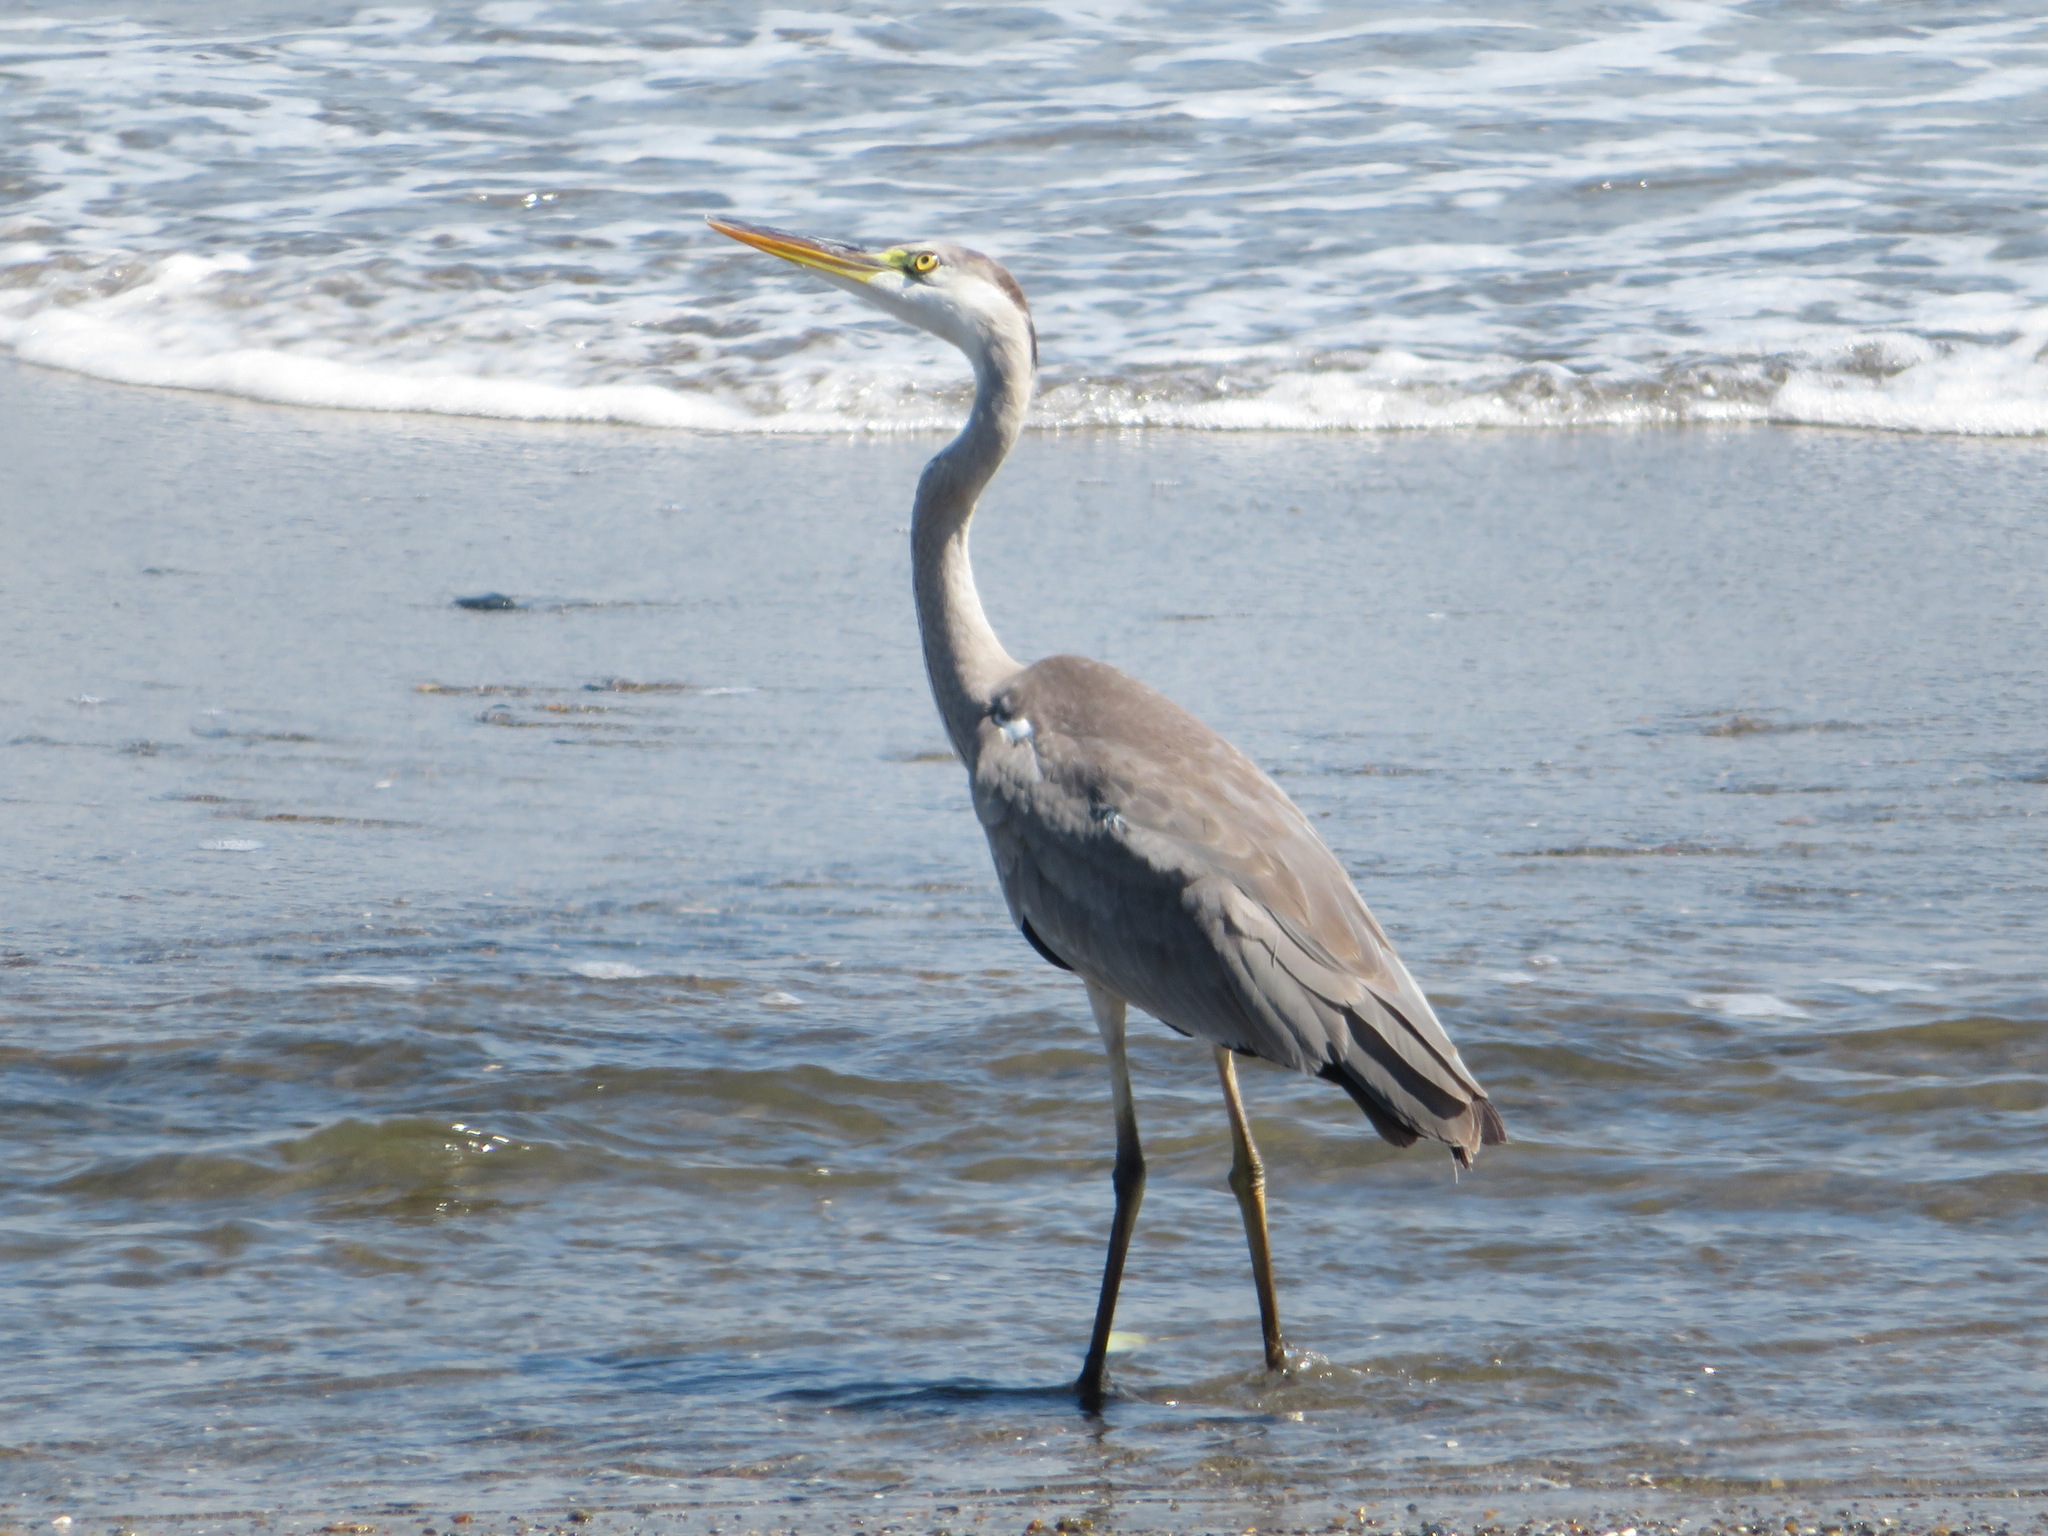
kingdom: Animalia
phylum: Chordata
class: Aves
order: Pelecaniformes
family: Ardeidae
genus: Ardea
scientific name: Ardea cinerea
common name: Grey heron
